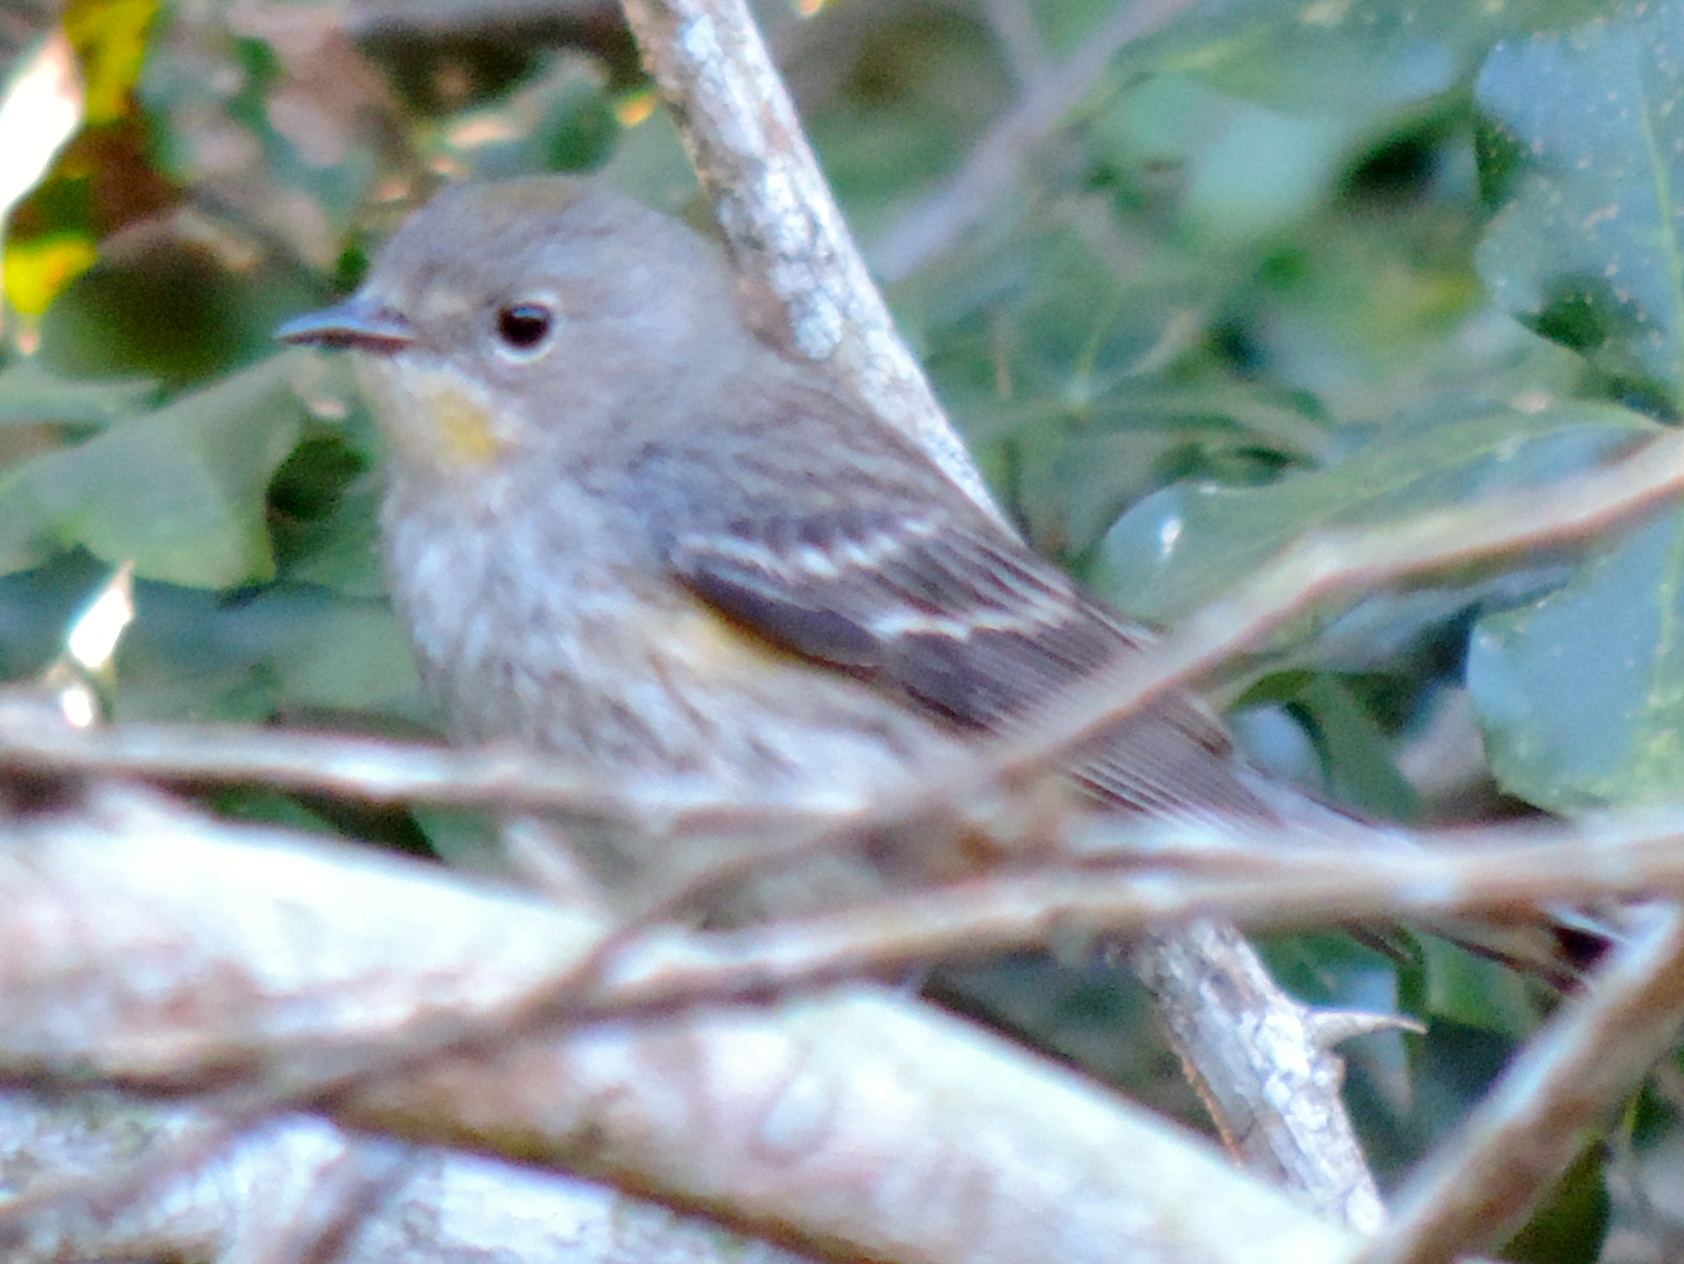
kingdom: Animalia
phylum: Chordata
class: Aves
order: Passeriformes
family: Parulidae
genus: Setophaga
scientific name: Setophaga coronata
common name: Myrtle warbler
